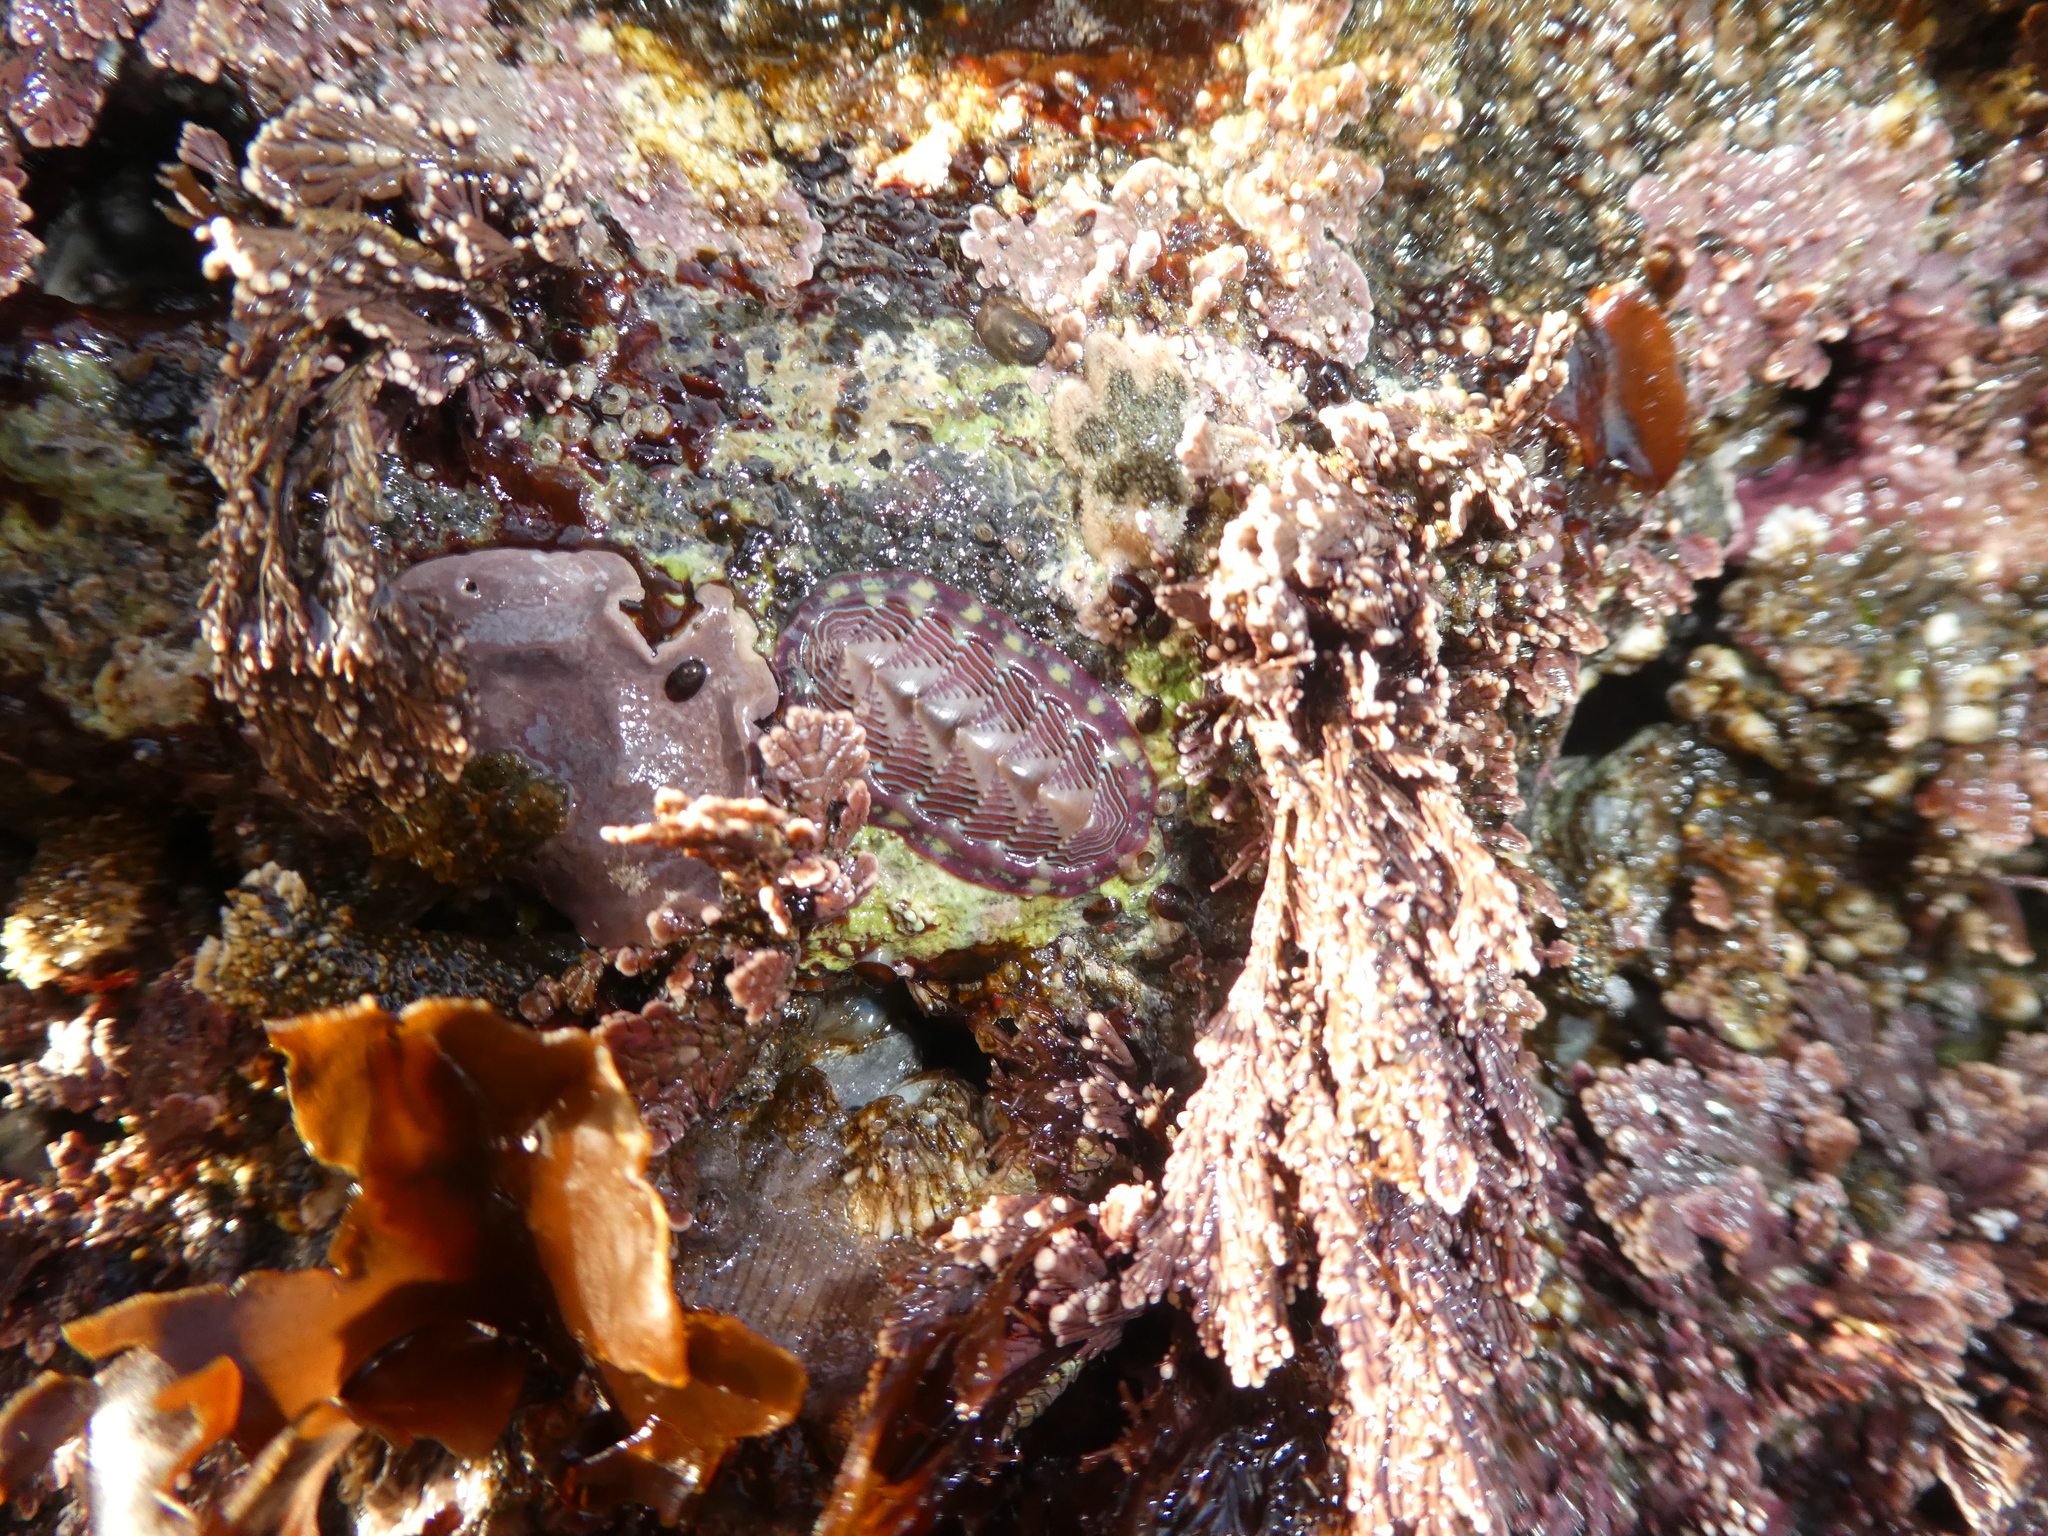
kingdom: Animalia
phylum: Mollusca
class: Polyplacophora
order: Chitonida
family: Tonicellidae
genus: Tonicella
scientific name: Tonicella lineata
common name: Lined chiton
